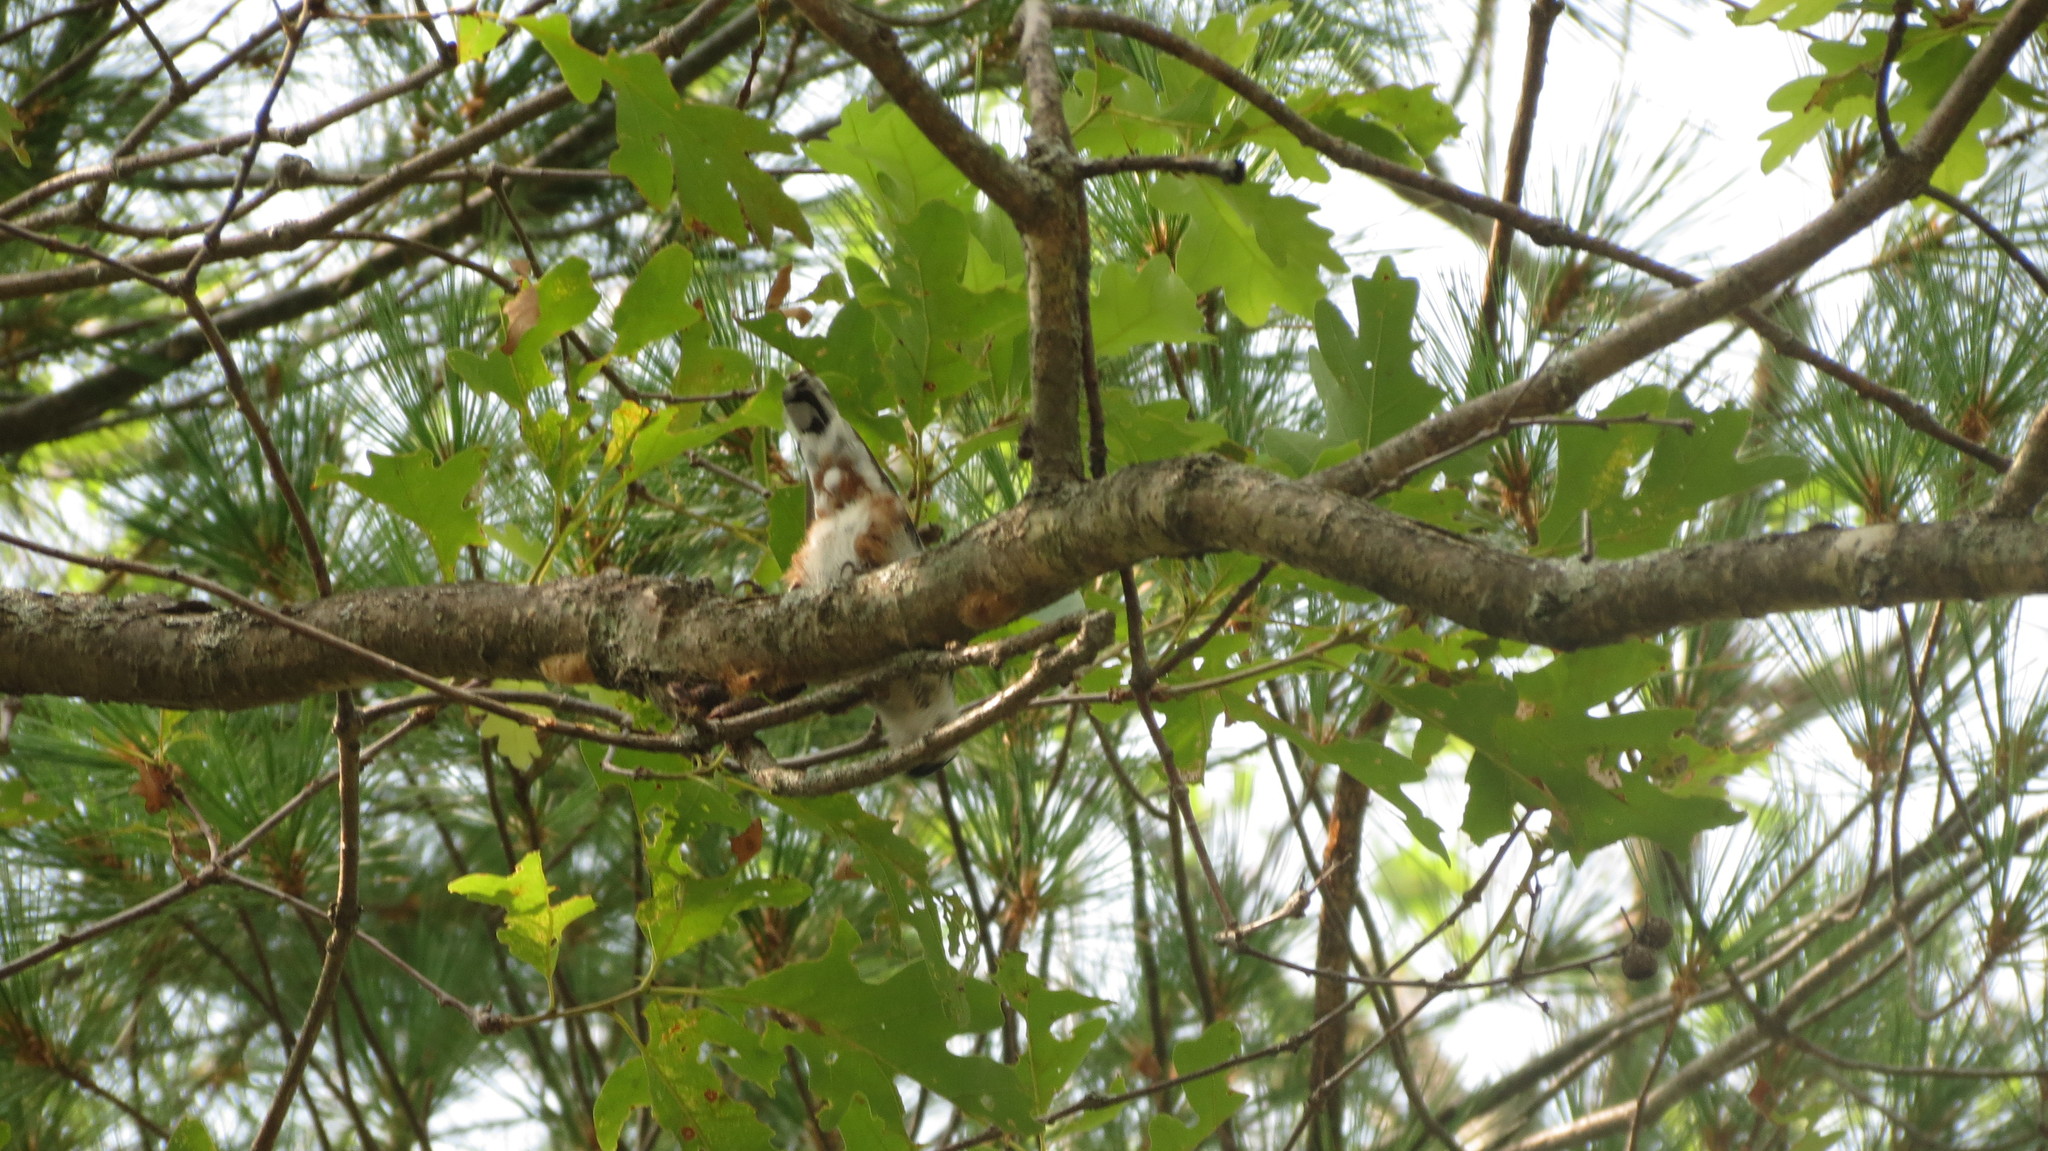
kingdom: Animalia
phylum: Chordata
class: Aves
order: Passeriformes
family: Sittidae
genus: Sitta
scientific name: Sitta carolinensis
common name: White-breasted nuthatch
